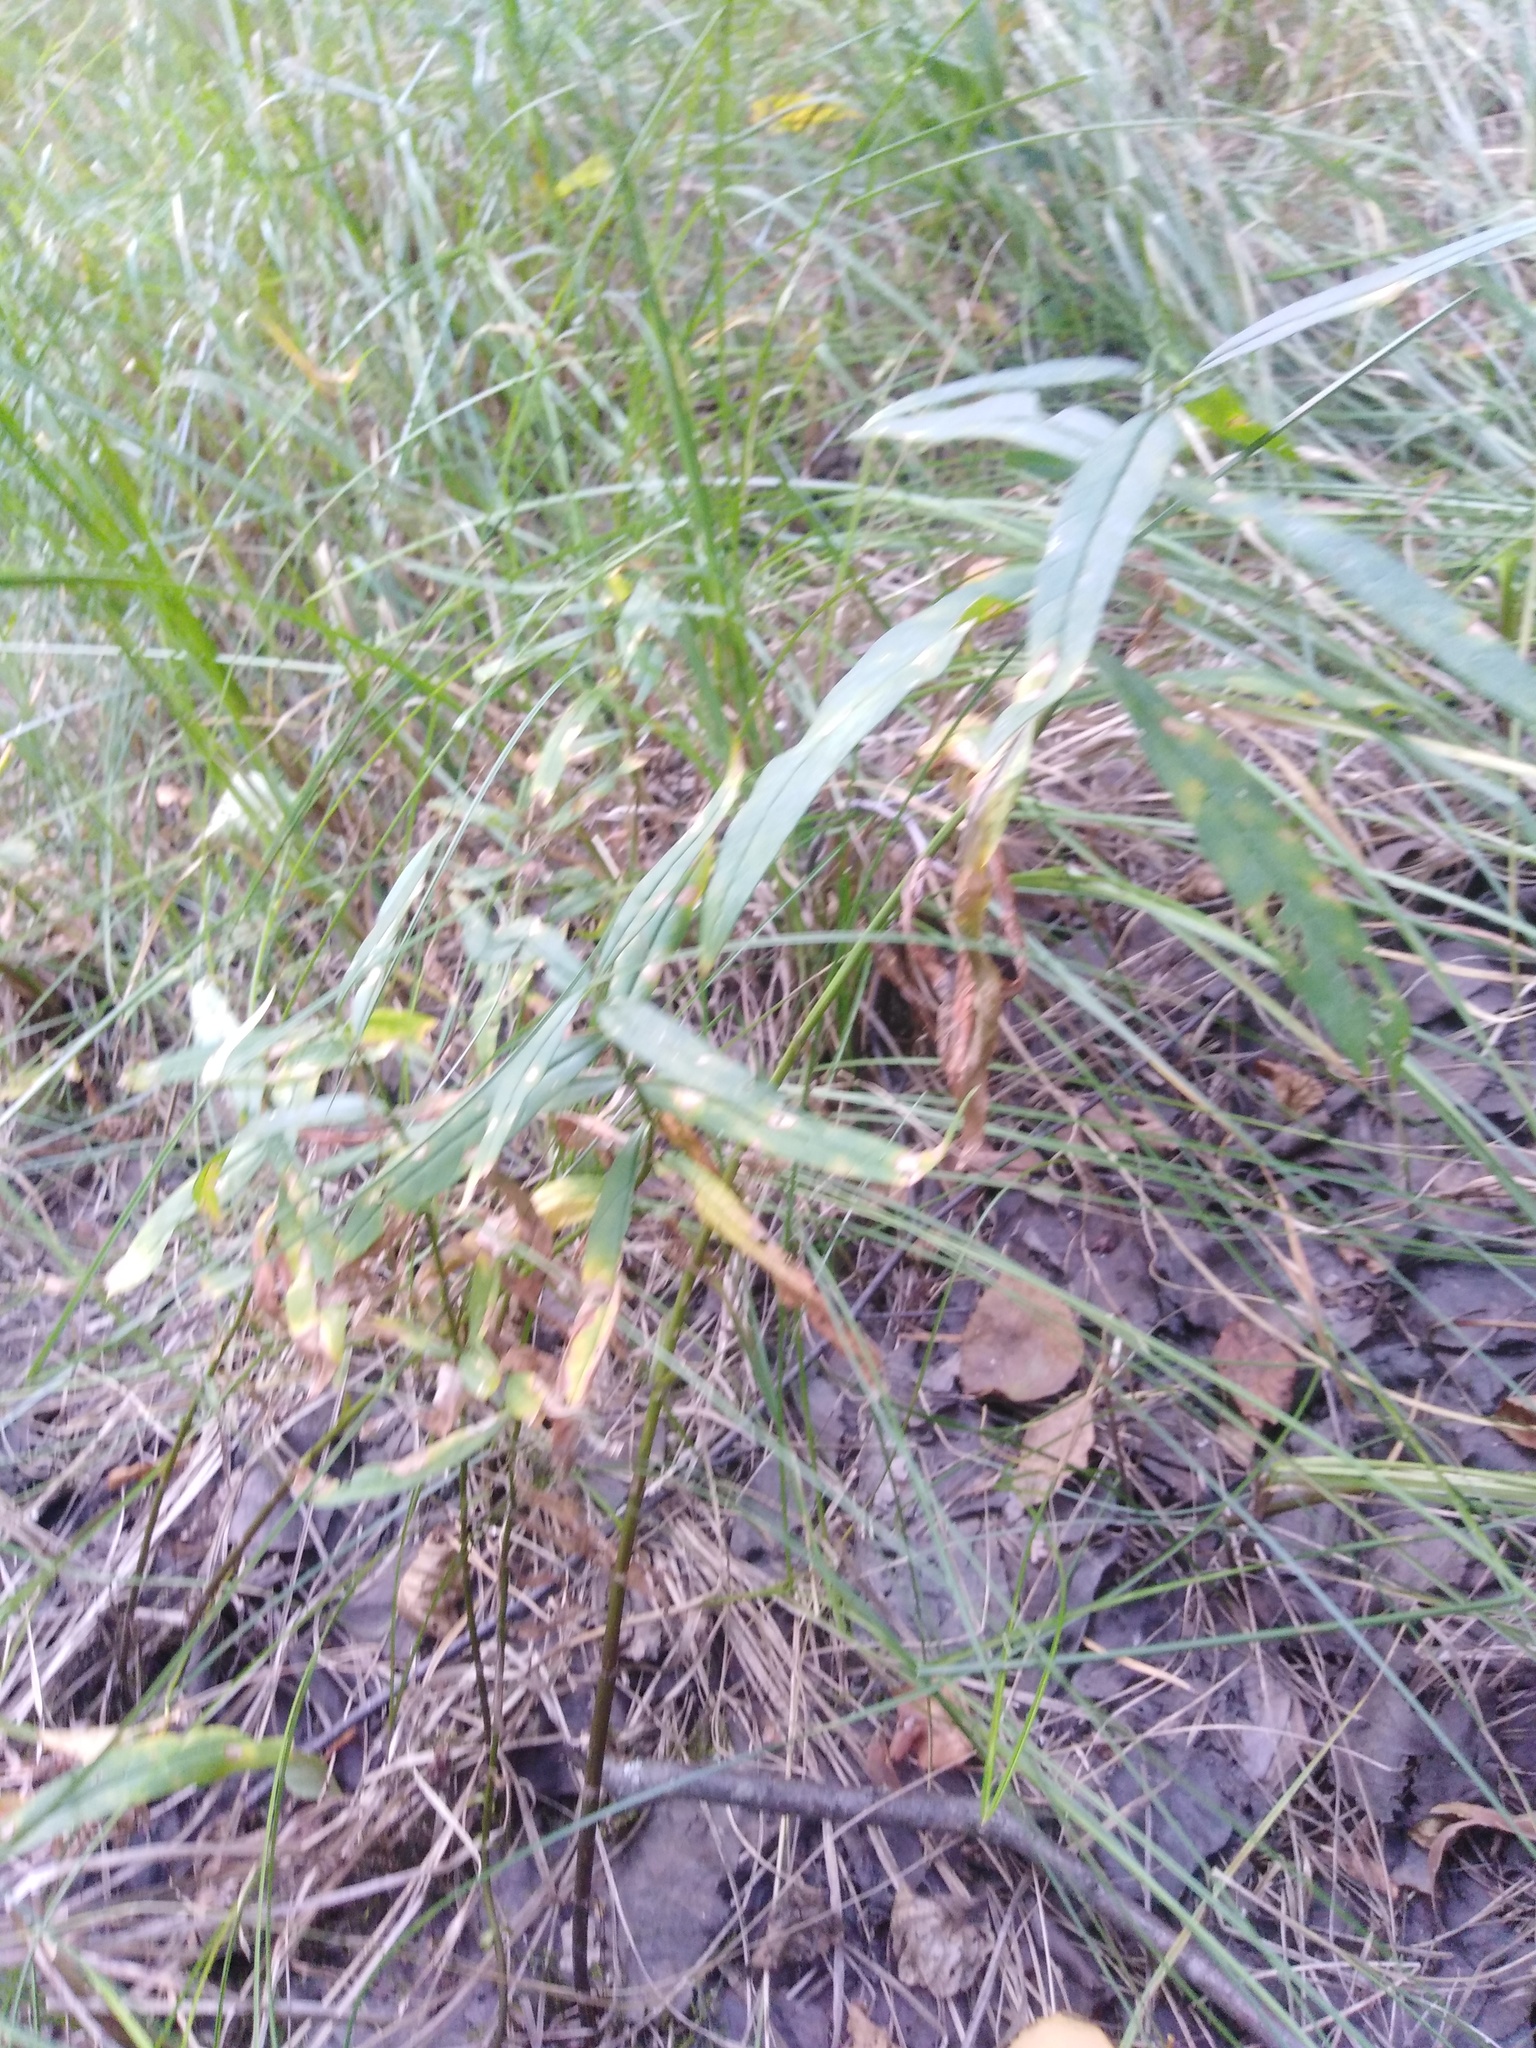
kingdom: Plantae
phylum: Tracheophyta
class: Magnoliopsida
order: Ericales
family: Primulaceae
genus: Lysimachia
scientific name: Lysimachia thyrsiflora
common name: Tufted loosestrife
